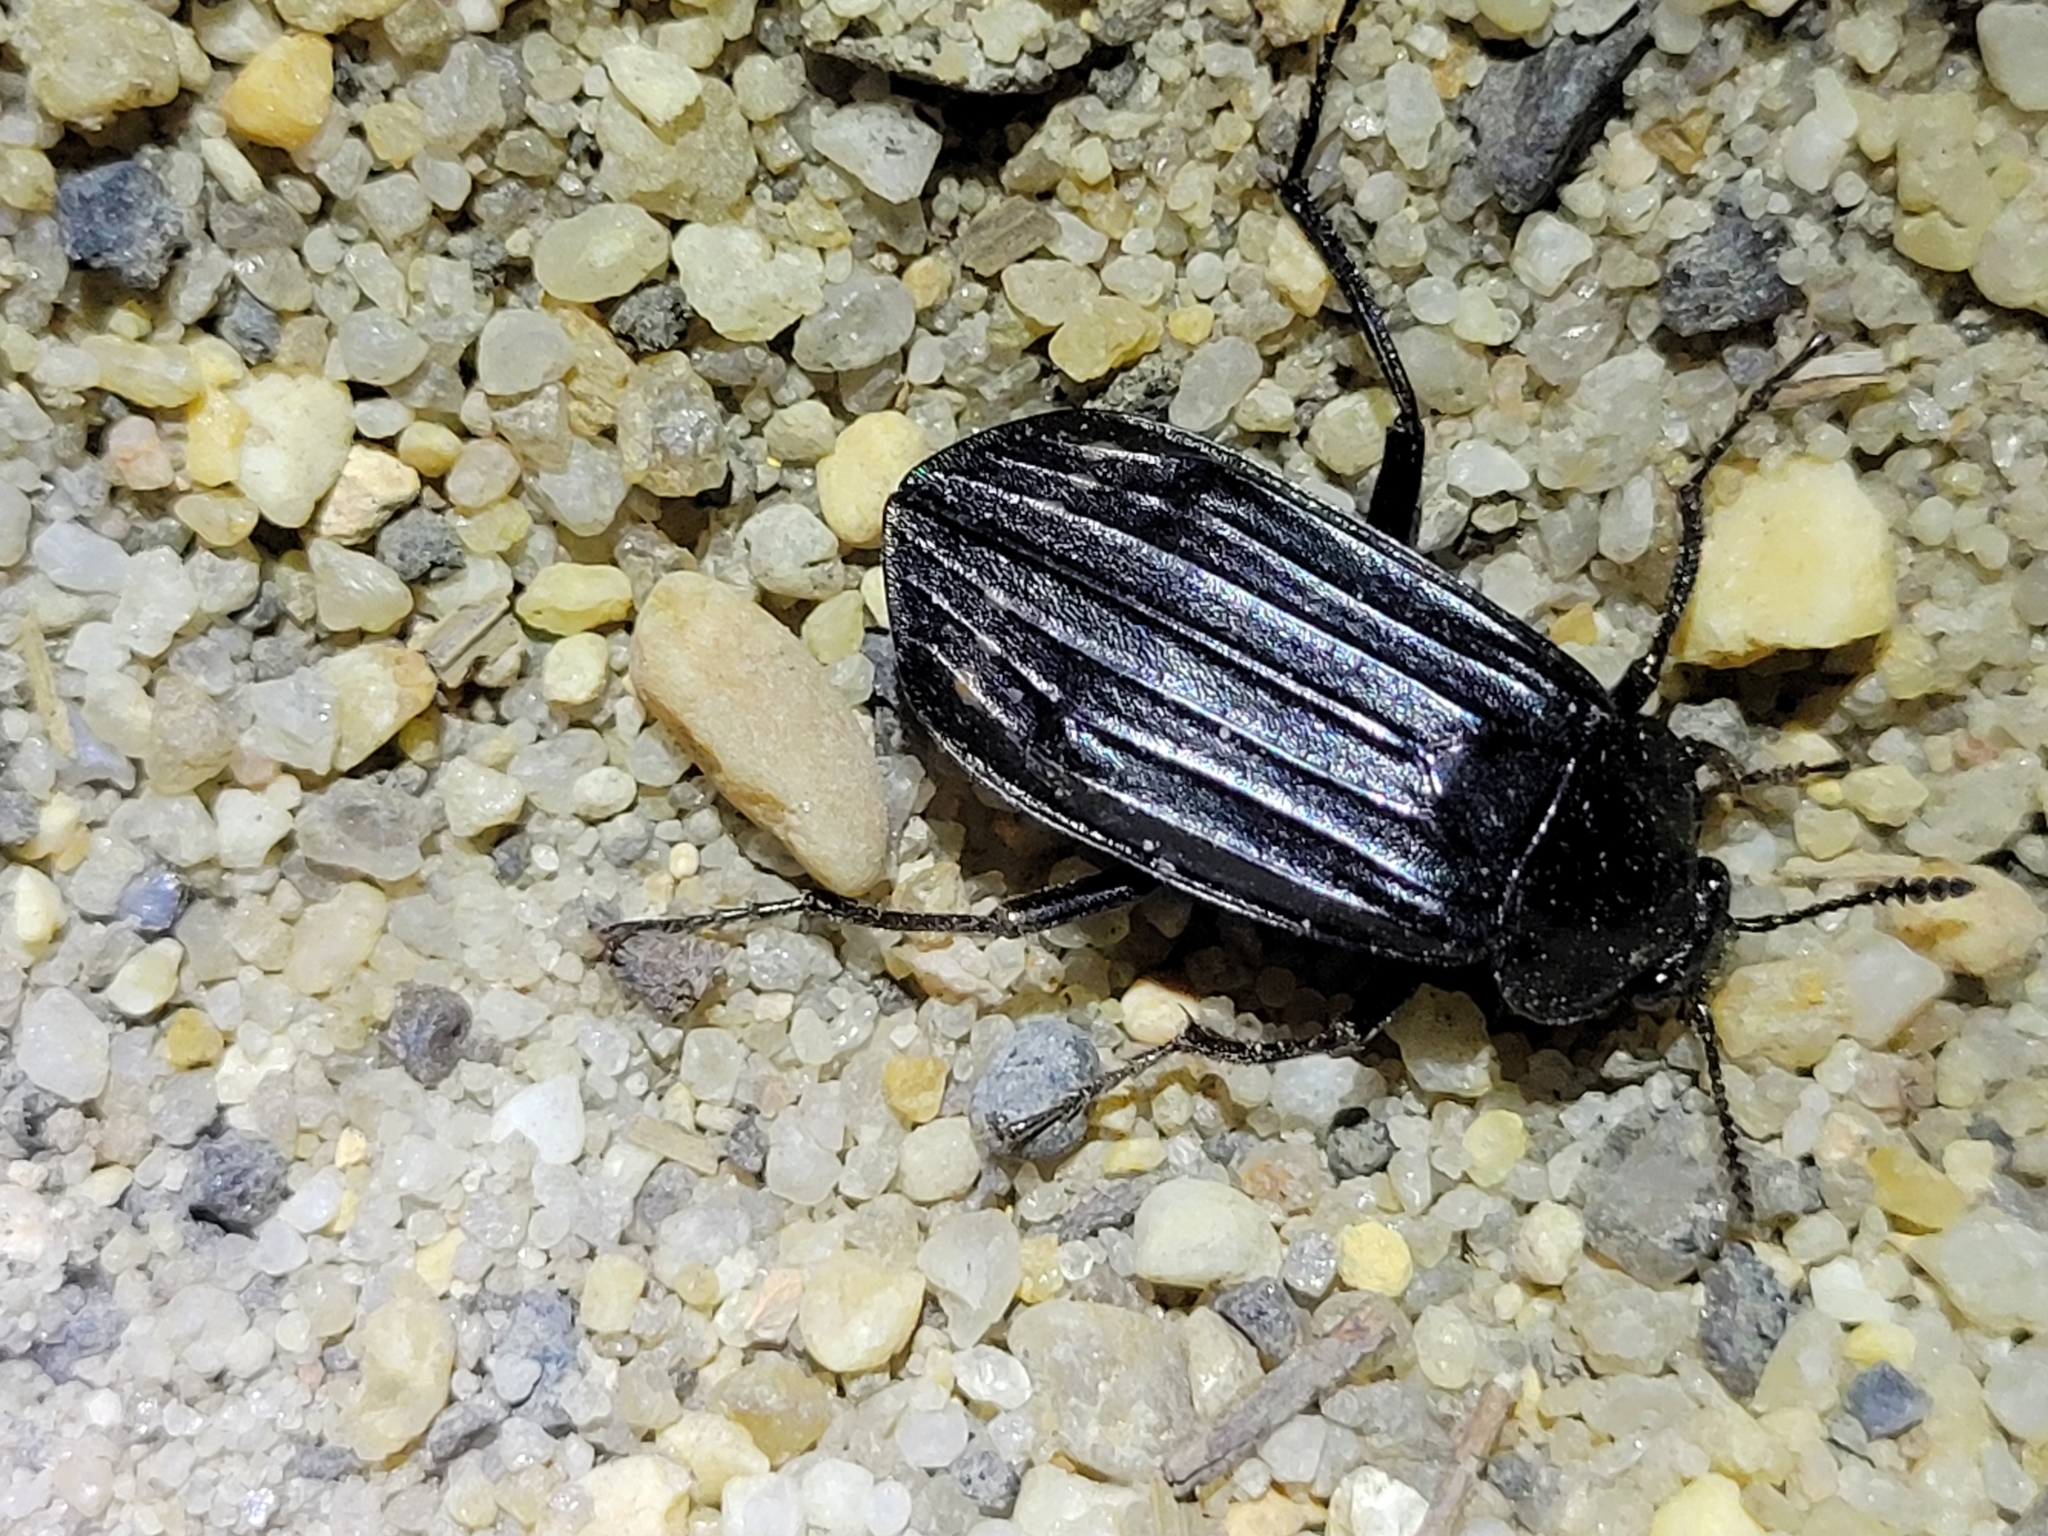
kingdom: Animalia
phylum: Arthropoda
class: Insecta
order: Coleoptera
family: Staphylinidae
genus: Necrodes
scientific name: Necrodes surinamensis
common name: Red-lined carrion beetle
